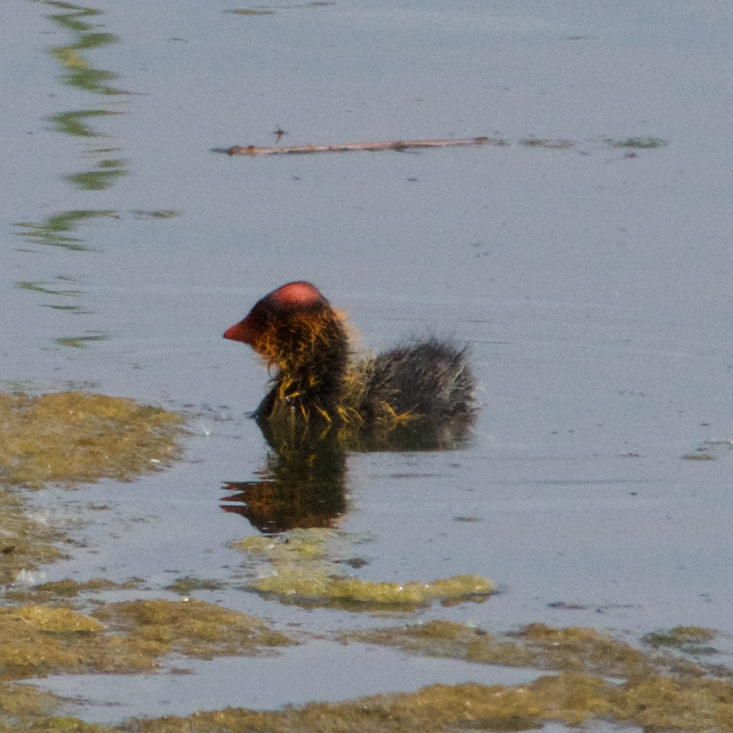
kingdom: Animalia
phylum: Chordata
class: Aves
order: Gruiformes
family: Rallidae
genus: Fulica
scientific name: Fulica americana
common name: American coot
